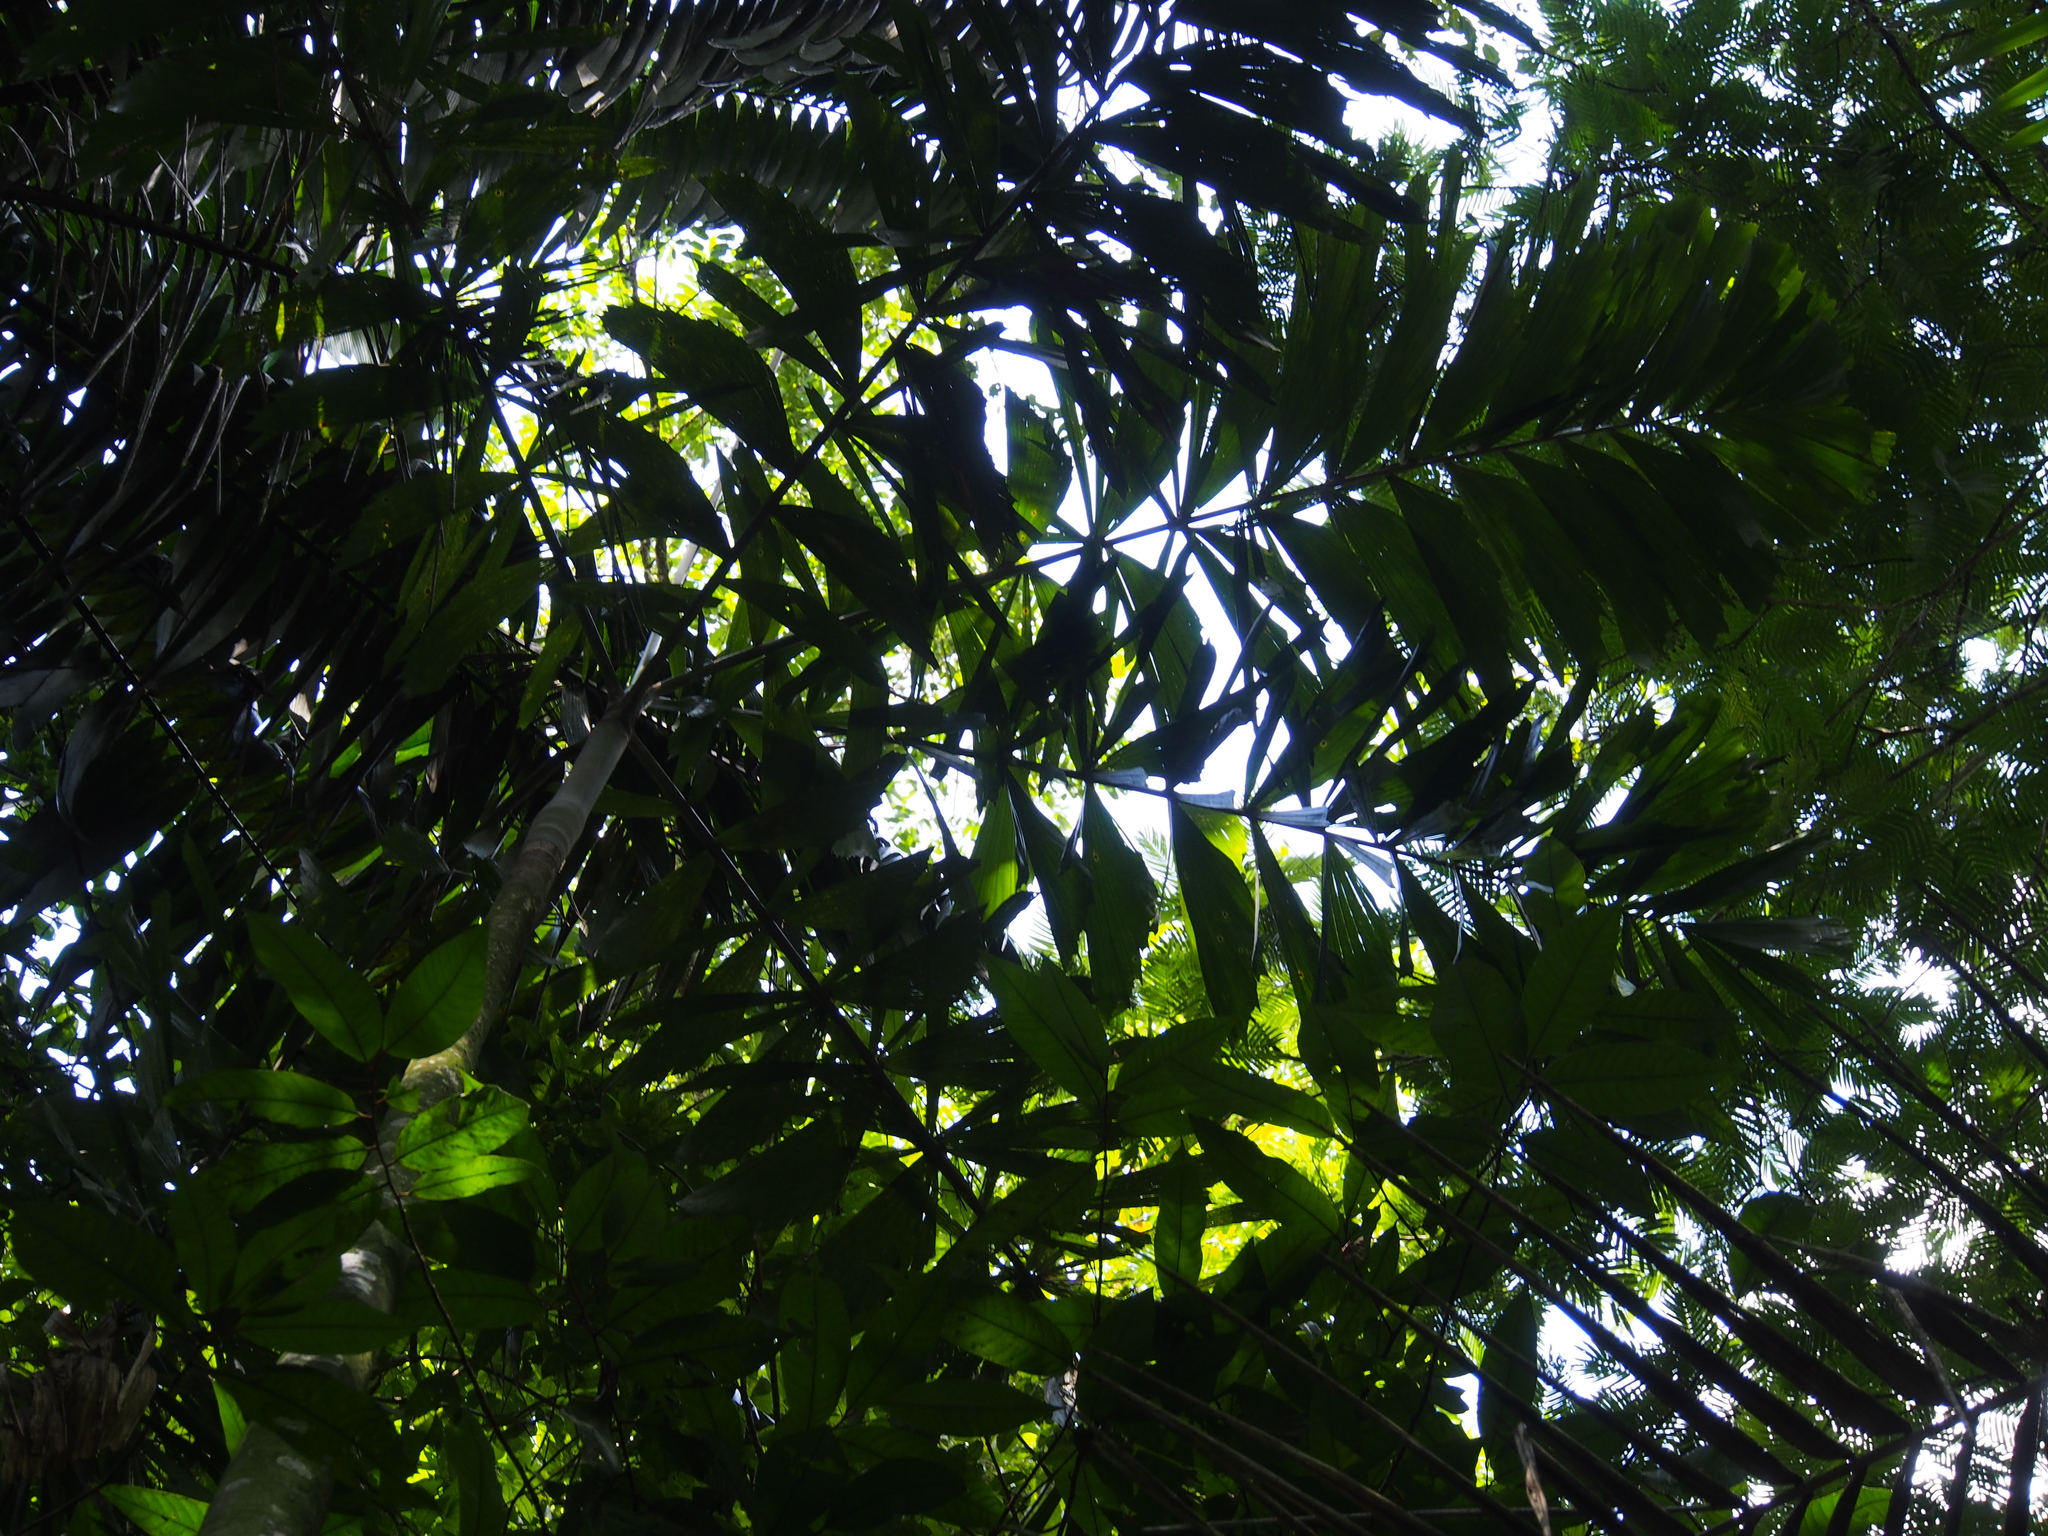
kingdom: Plantae
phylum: Tracheophyta
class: Liliopsida
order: Arecales
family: Arecaceae
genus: Iriartea
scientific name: Iriartea deltoidea
